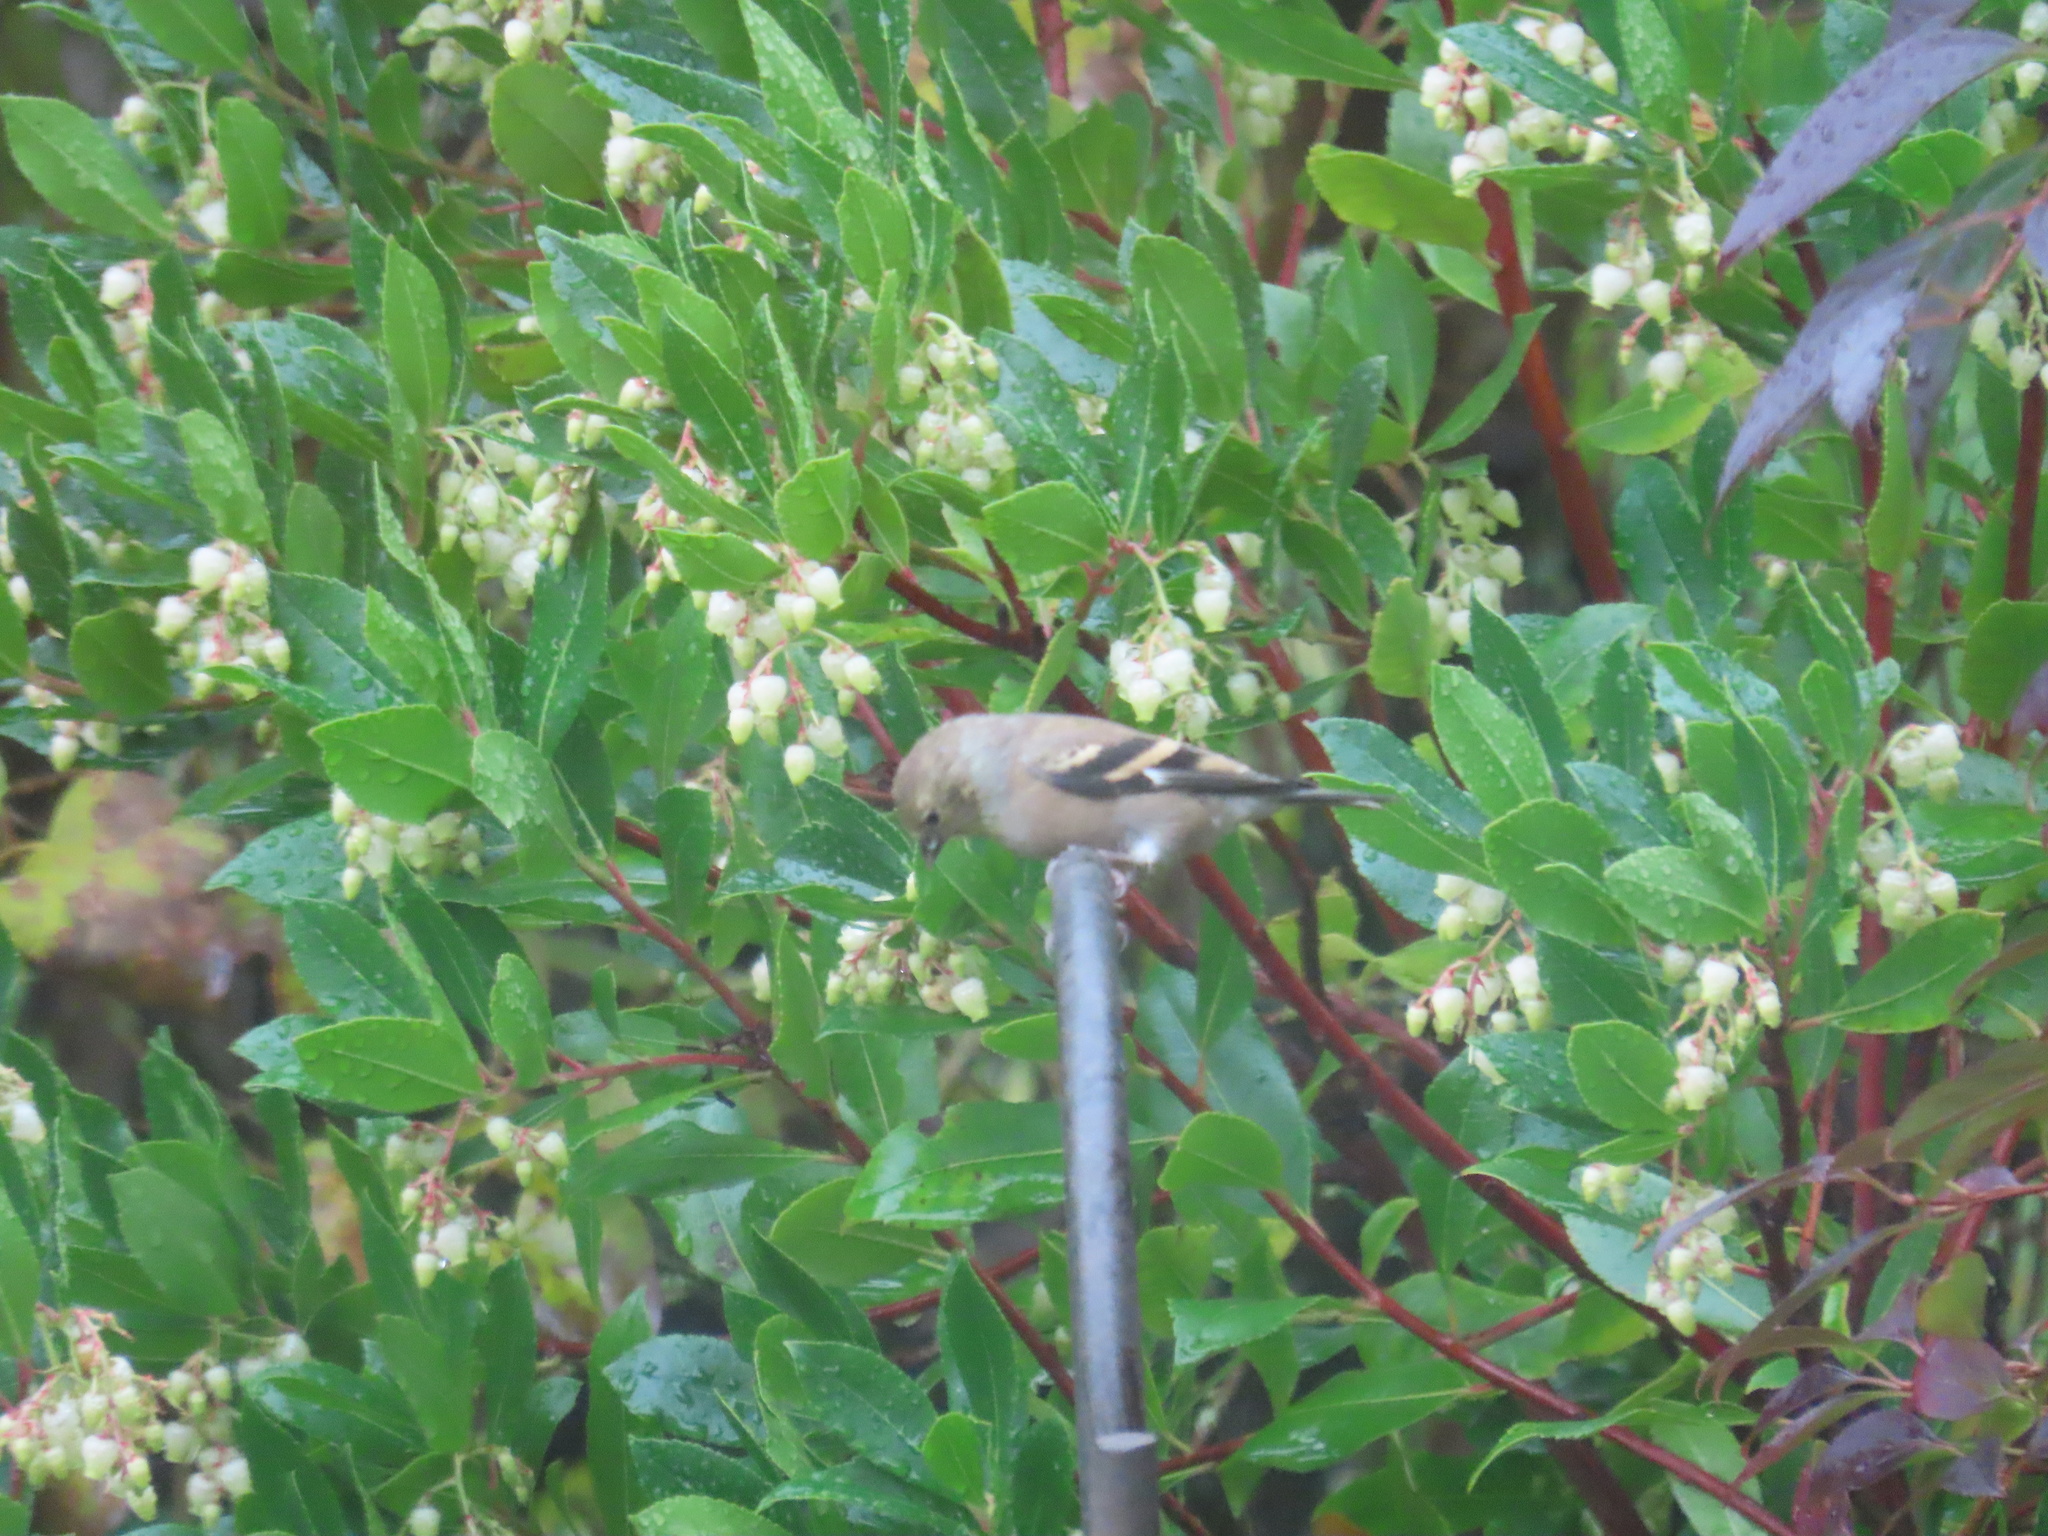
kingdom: Animalia
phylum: Chordata
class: Aves
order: Passeriformes
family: Fringillidae
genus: Spinus
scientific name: Spinus tristis
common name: American goldfinch
